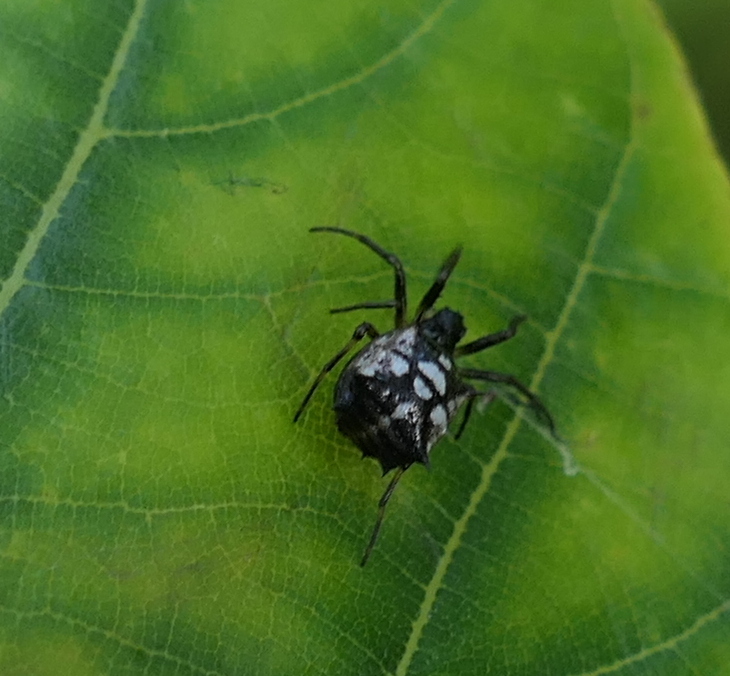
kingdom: Animalia
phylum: Arthropoda
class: Arachnida
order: Araneae
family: Araneidae
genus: Micrathena
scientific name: Micrathena picta
